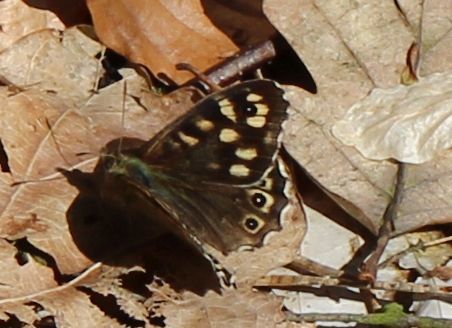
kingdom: Animalia
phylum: Arthropoda
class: Insecta
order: Lepidoptera
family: Nymphalidae
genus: Pararge
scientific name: Pararge aegeria
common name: Speckled wood
